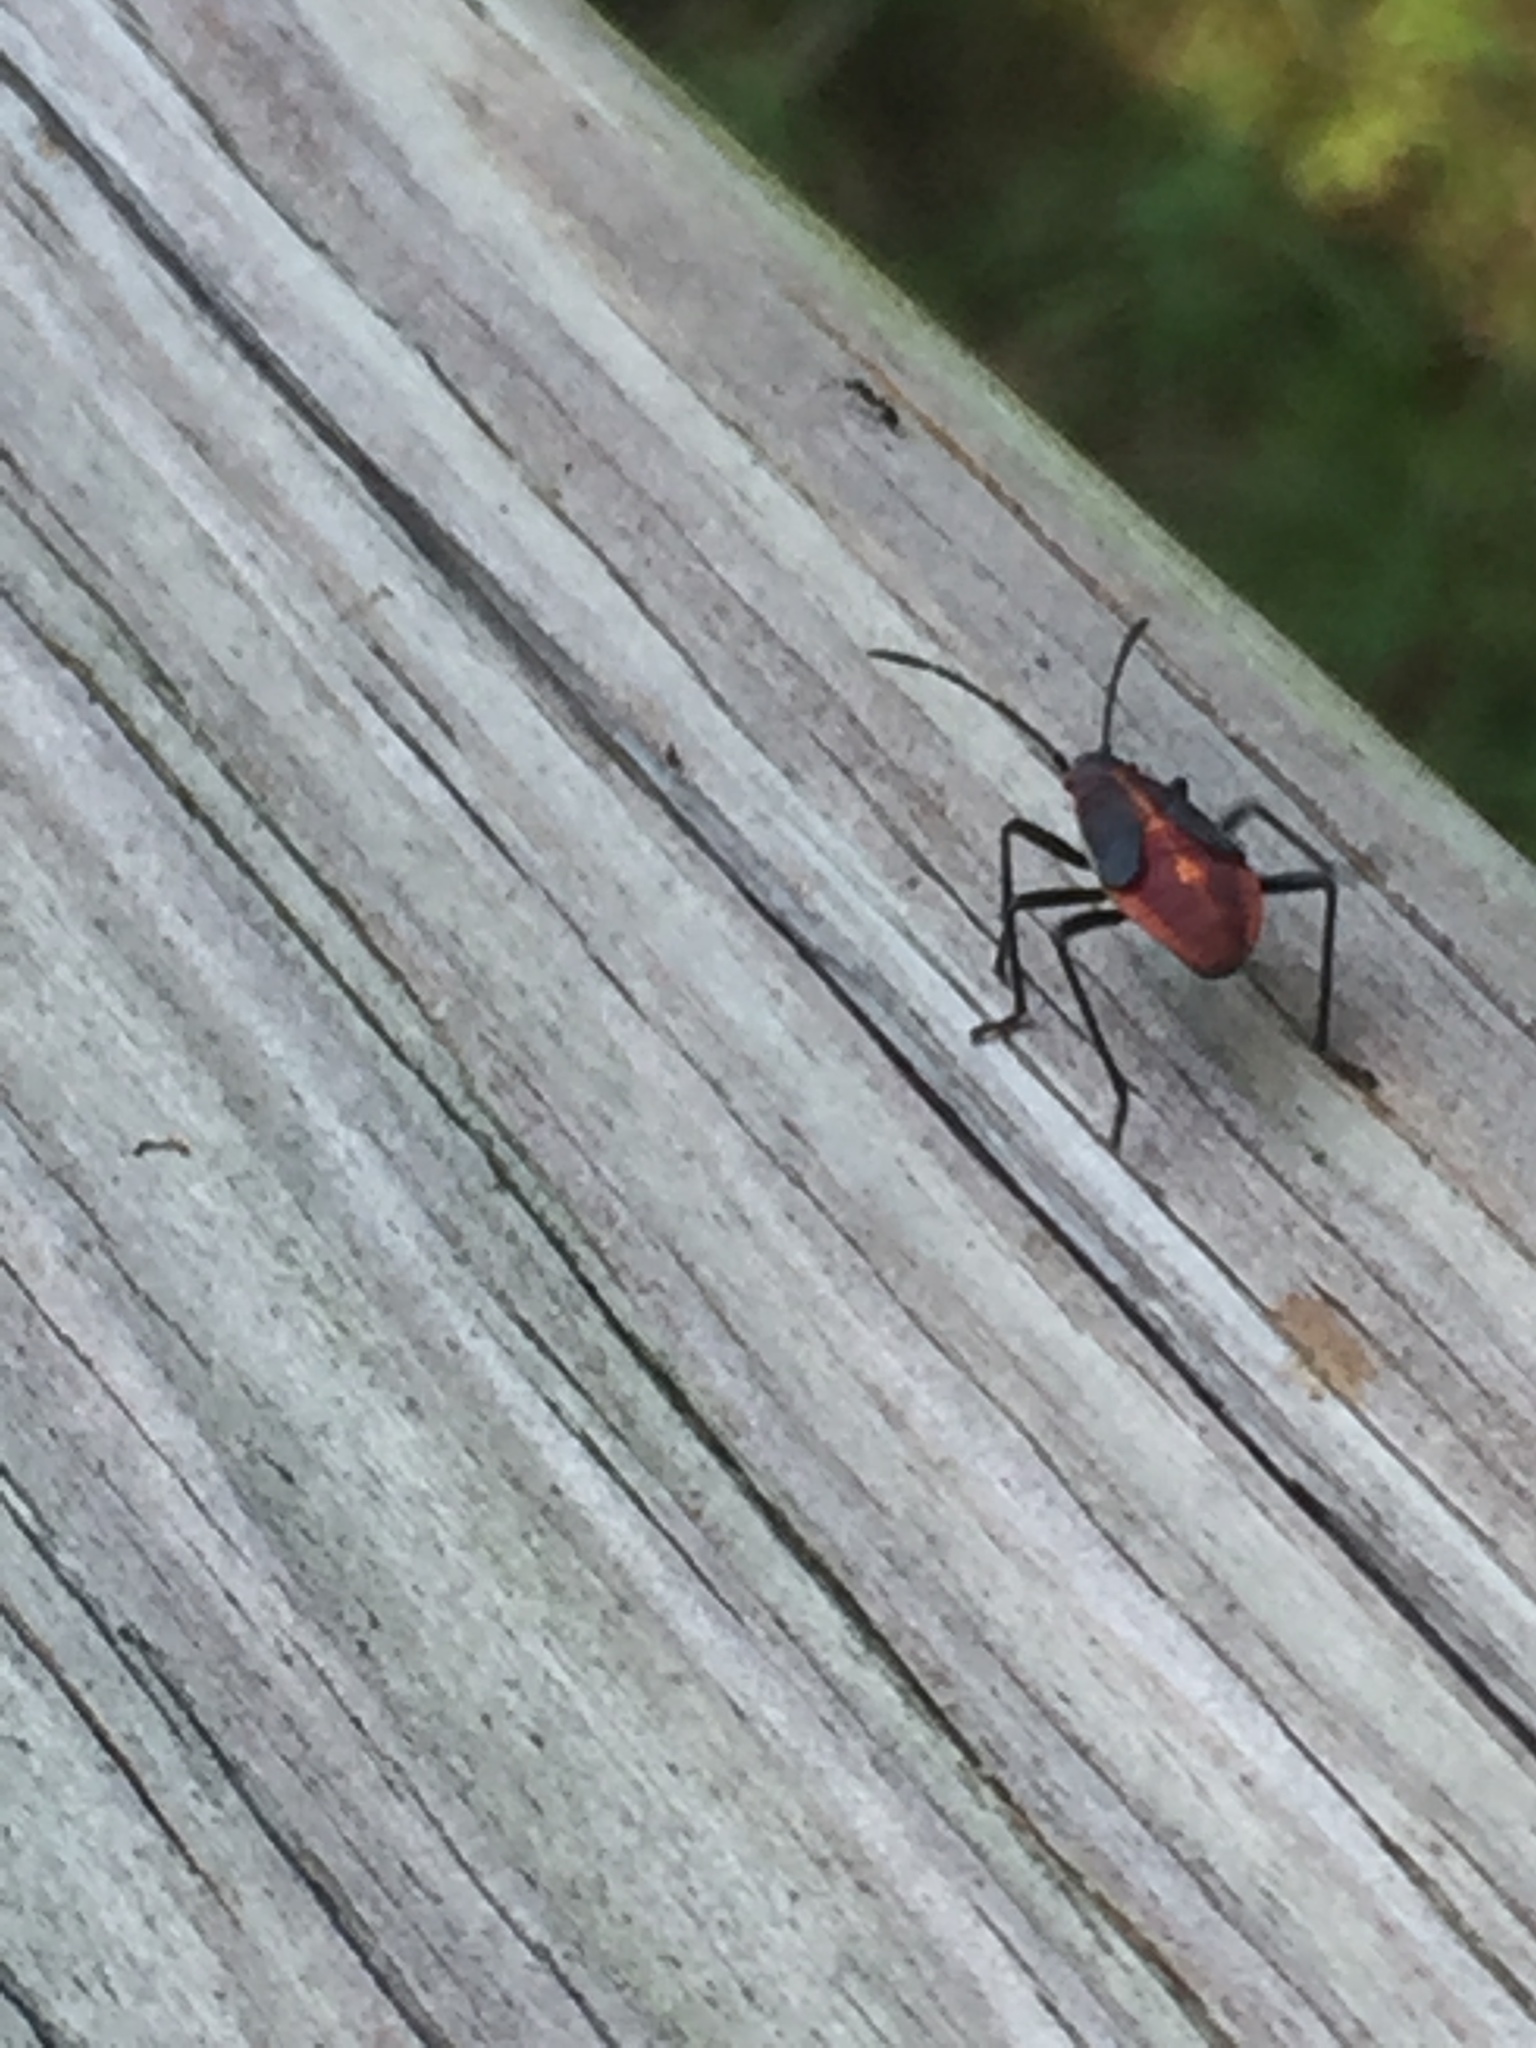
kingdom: Animalia
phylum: Arthropoda
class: Insecta
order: Hemiptera
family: Rhopalidae
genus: Boisea
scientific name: Boisea trivittata
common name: Boxelder bug
